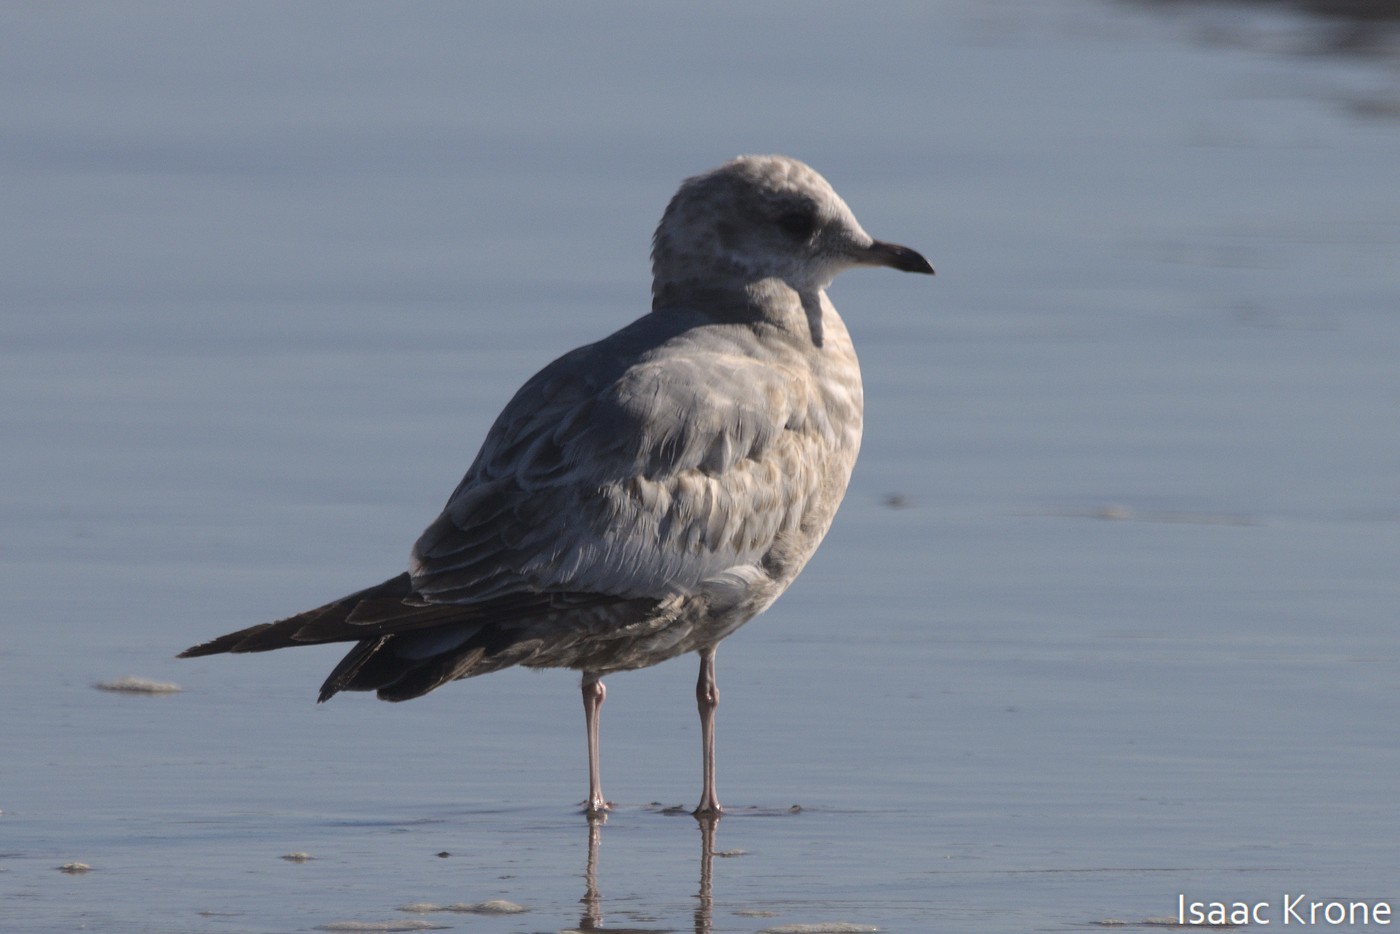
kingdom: Animalia
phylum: Chordata
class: Aves
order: Charadriiformes
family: Laridae
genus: Larus
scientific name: Larus brachyrhynchus
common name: Short-billed gull
